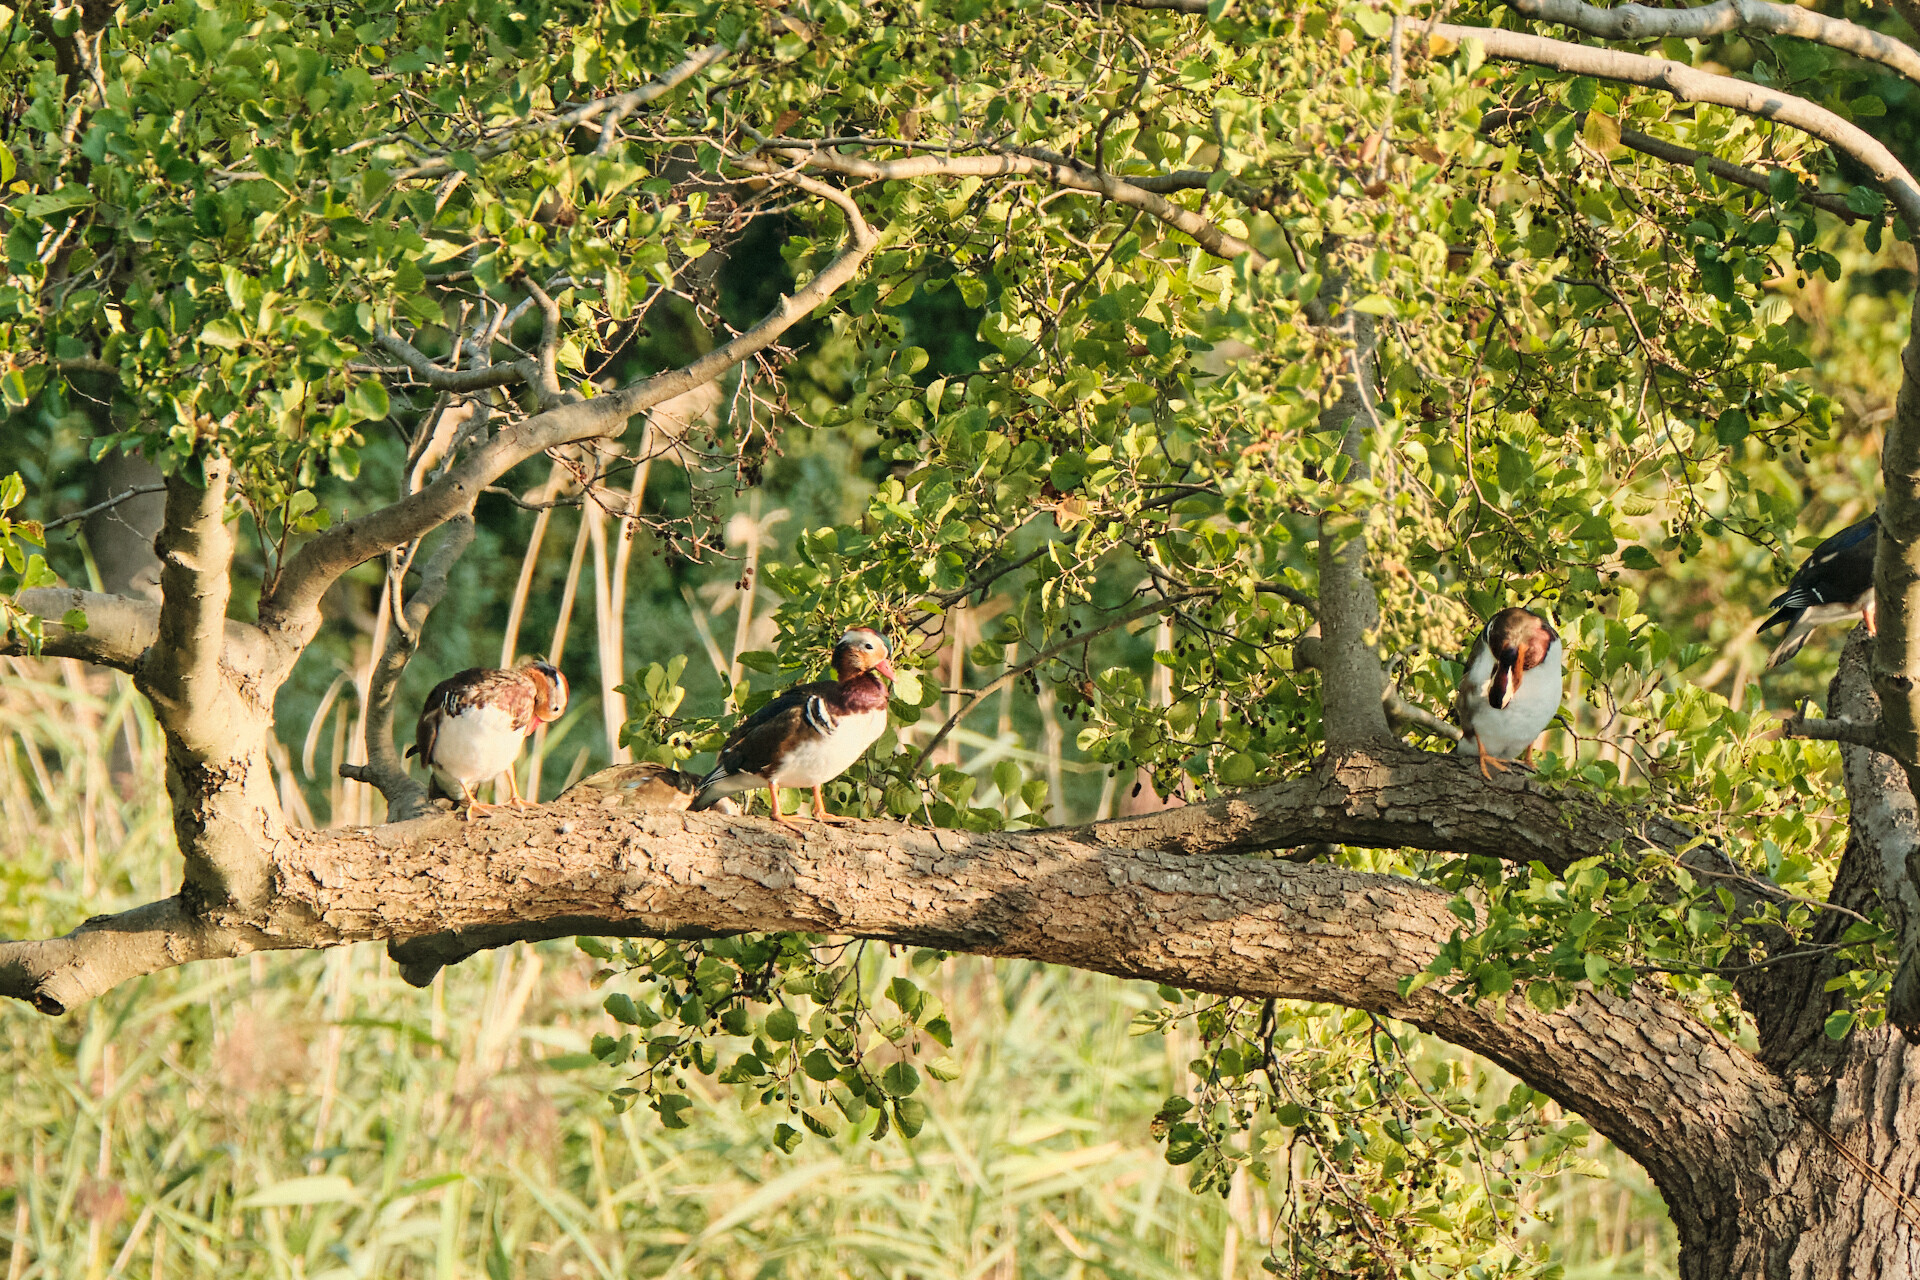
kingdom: Animalia
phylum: Chordata
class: Aves
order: Anseriformes
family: Anatidae
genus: Aix
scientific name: Aix galericulata
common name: Mandarin duck
